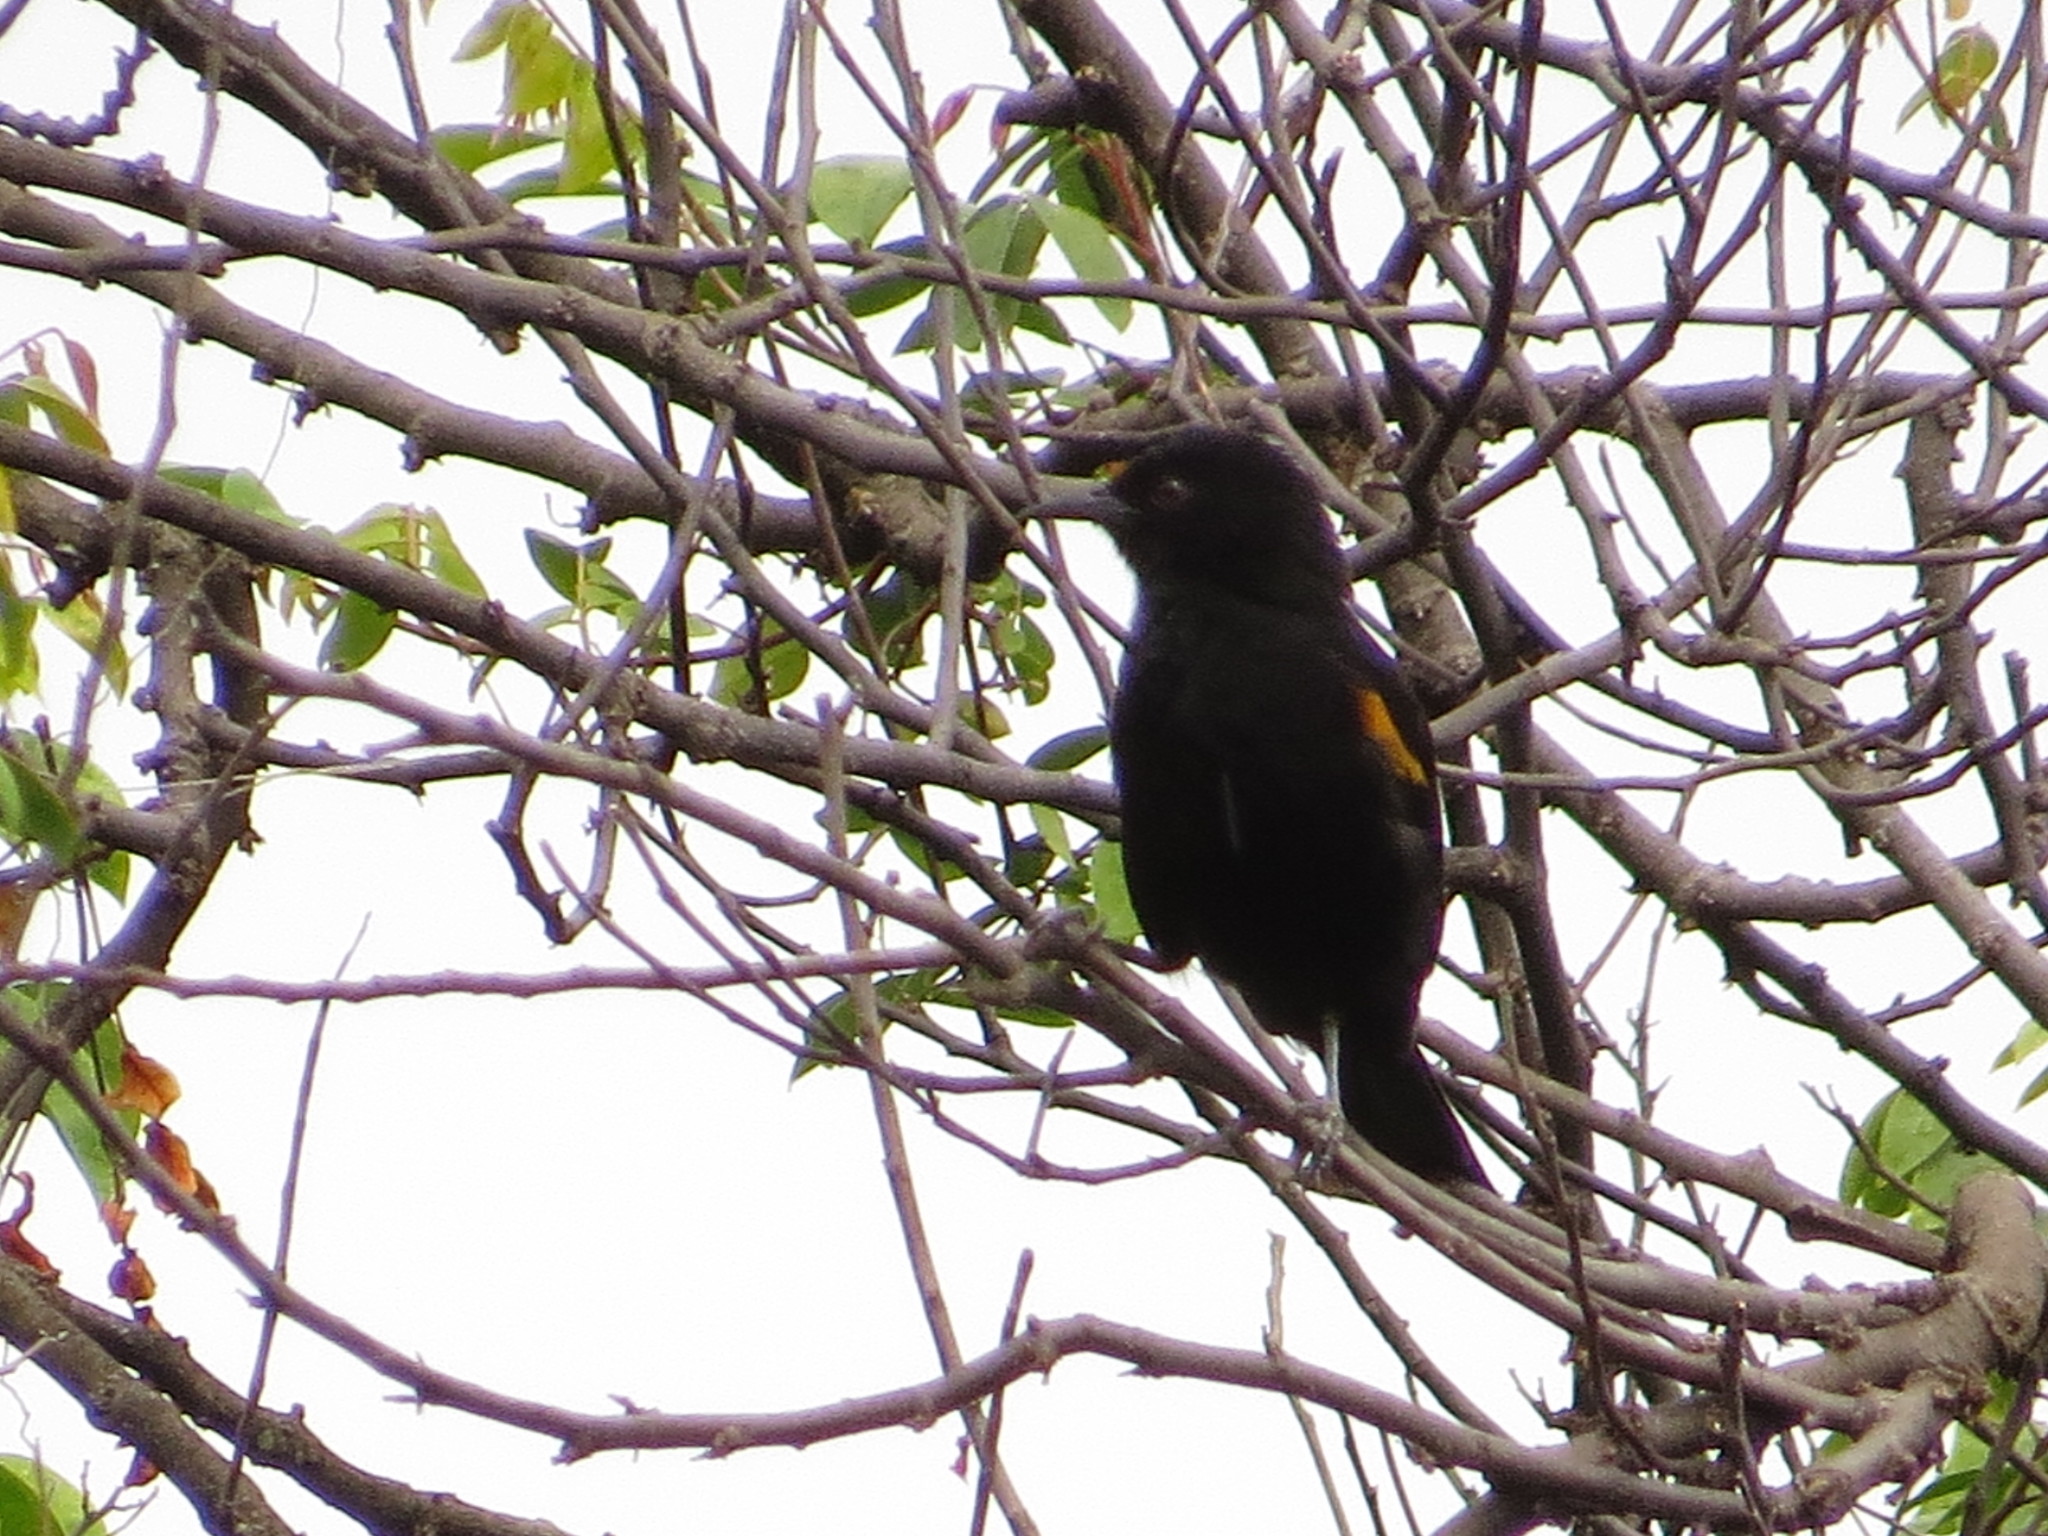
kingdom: Animalia
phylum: Chordata
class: Aves
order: Passeriformes
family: Icteridae
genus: Icterus
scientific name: Icterus cayanensis
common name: Epaulet oriole
